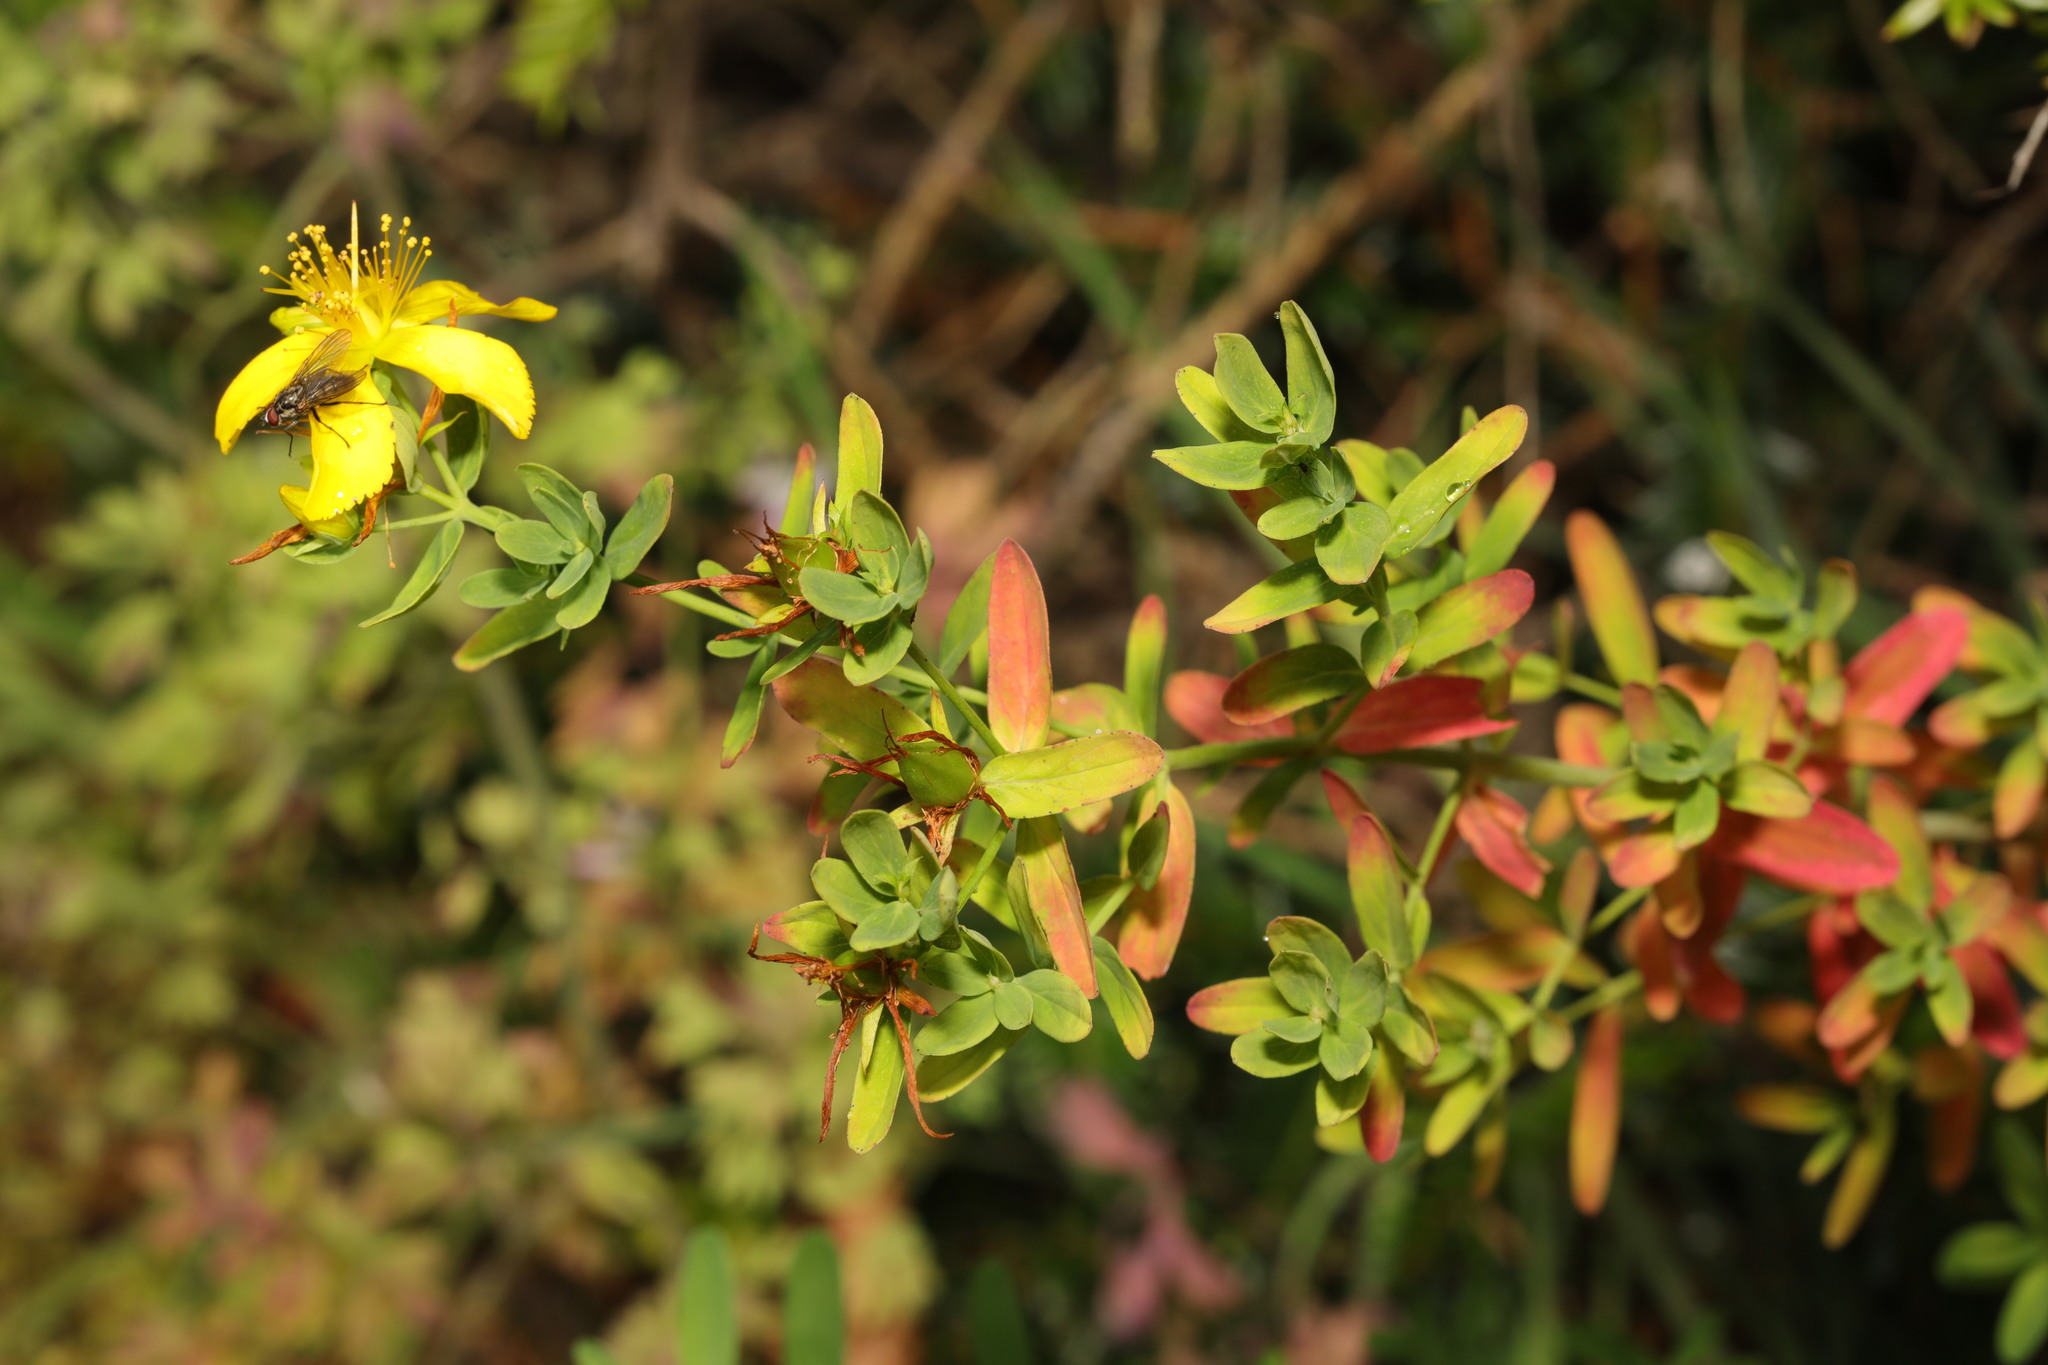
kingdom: Plantae
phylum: Tracheophyta
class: Magnoliopsida
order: Malpighiales
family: Hypericaceae
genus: Hypericum
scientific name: Hypericum perforatum
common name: Common st. johnswort
